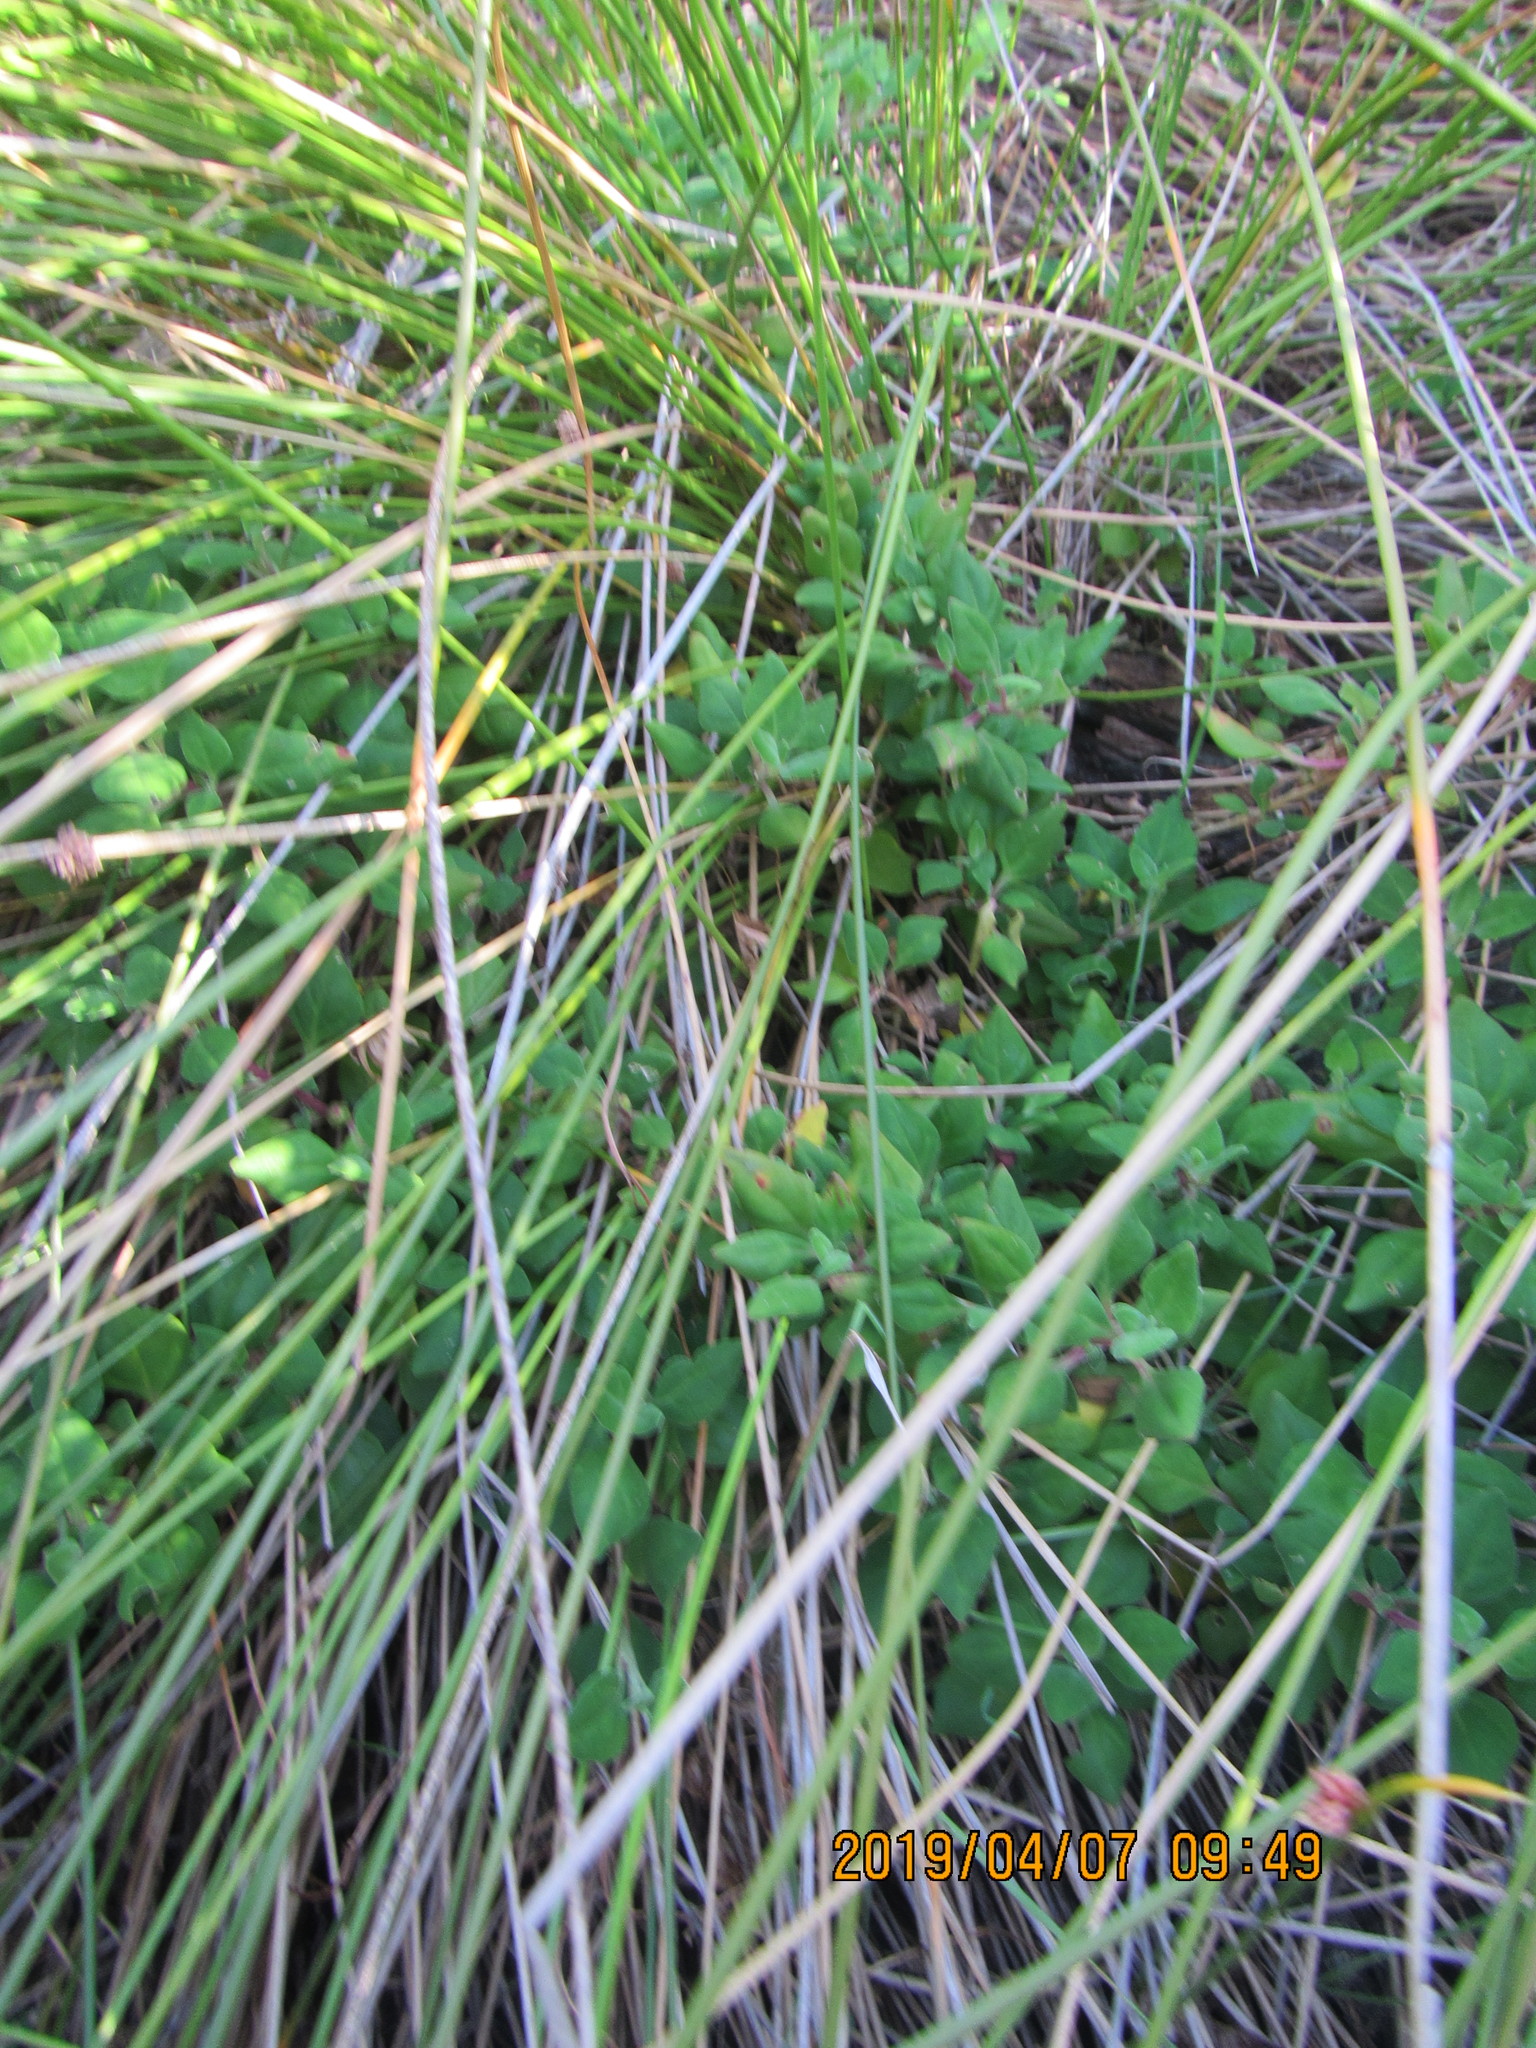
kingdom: Plantae
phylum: Tracheophyta
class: Magnoliopsida
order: Caryophyllales
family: Aizoaceae
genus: Tetragonia
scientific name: Tetragonia implexicoma
